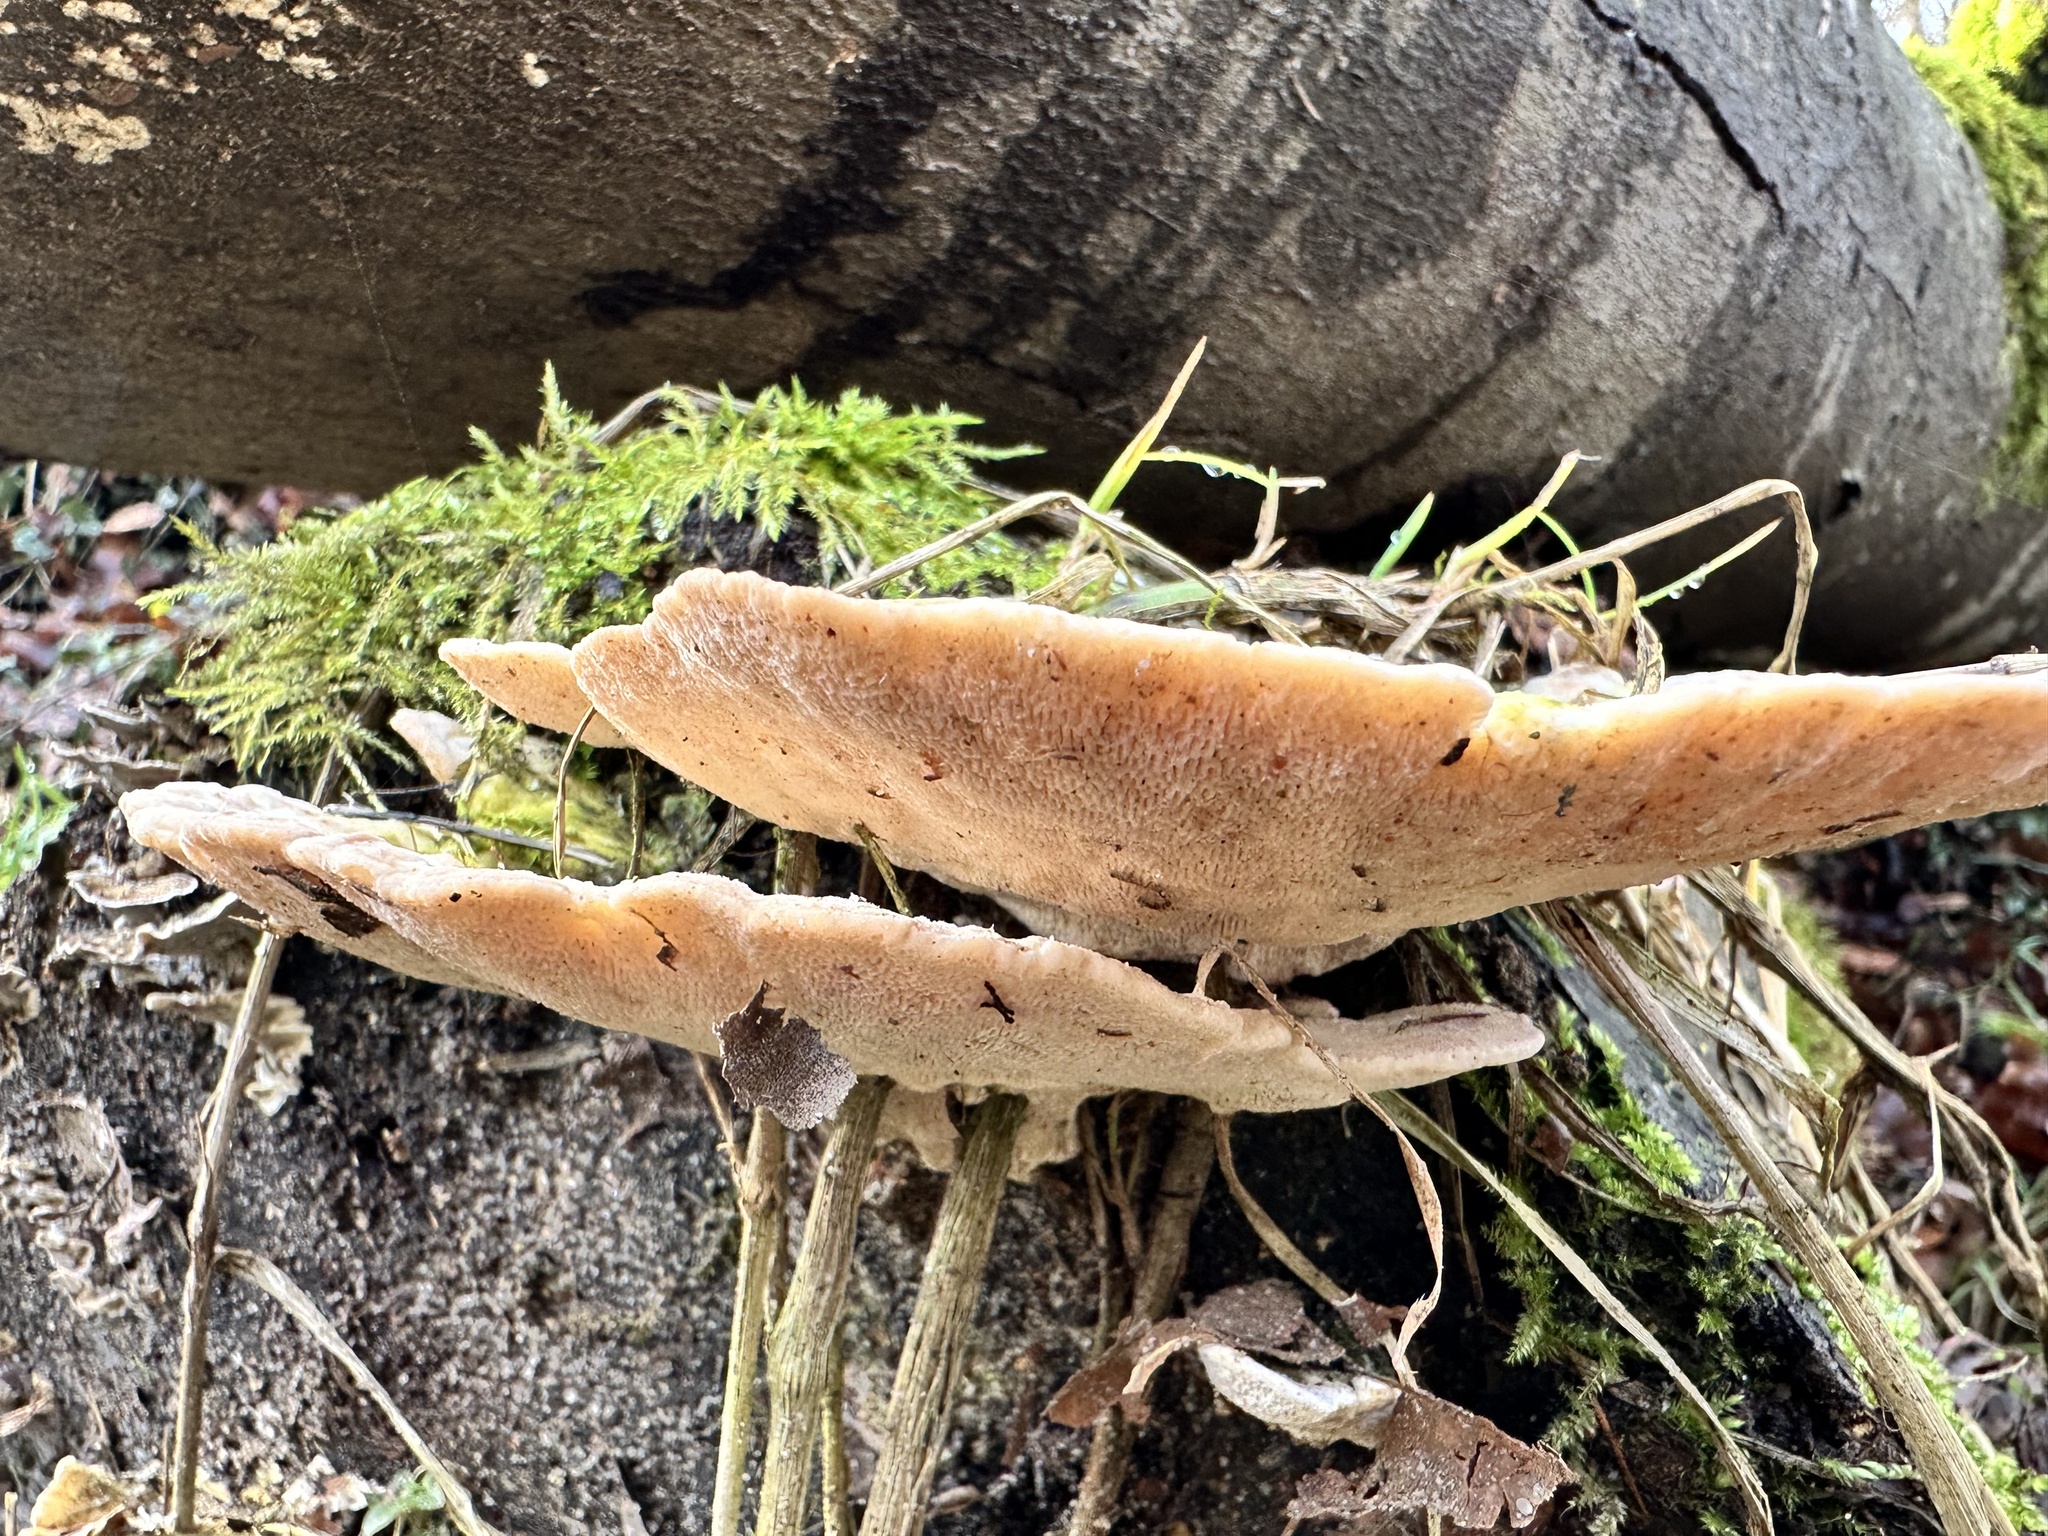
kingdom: Fungi
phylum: Basidiomycota
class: Agaricomycetes
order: Polyporales
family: Polyporaceae
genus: Trametes
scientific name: Trametes gibbosa
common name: Lumpy bracket
